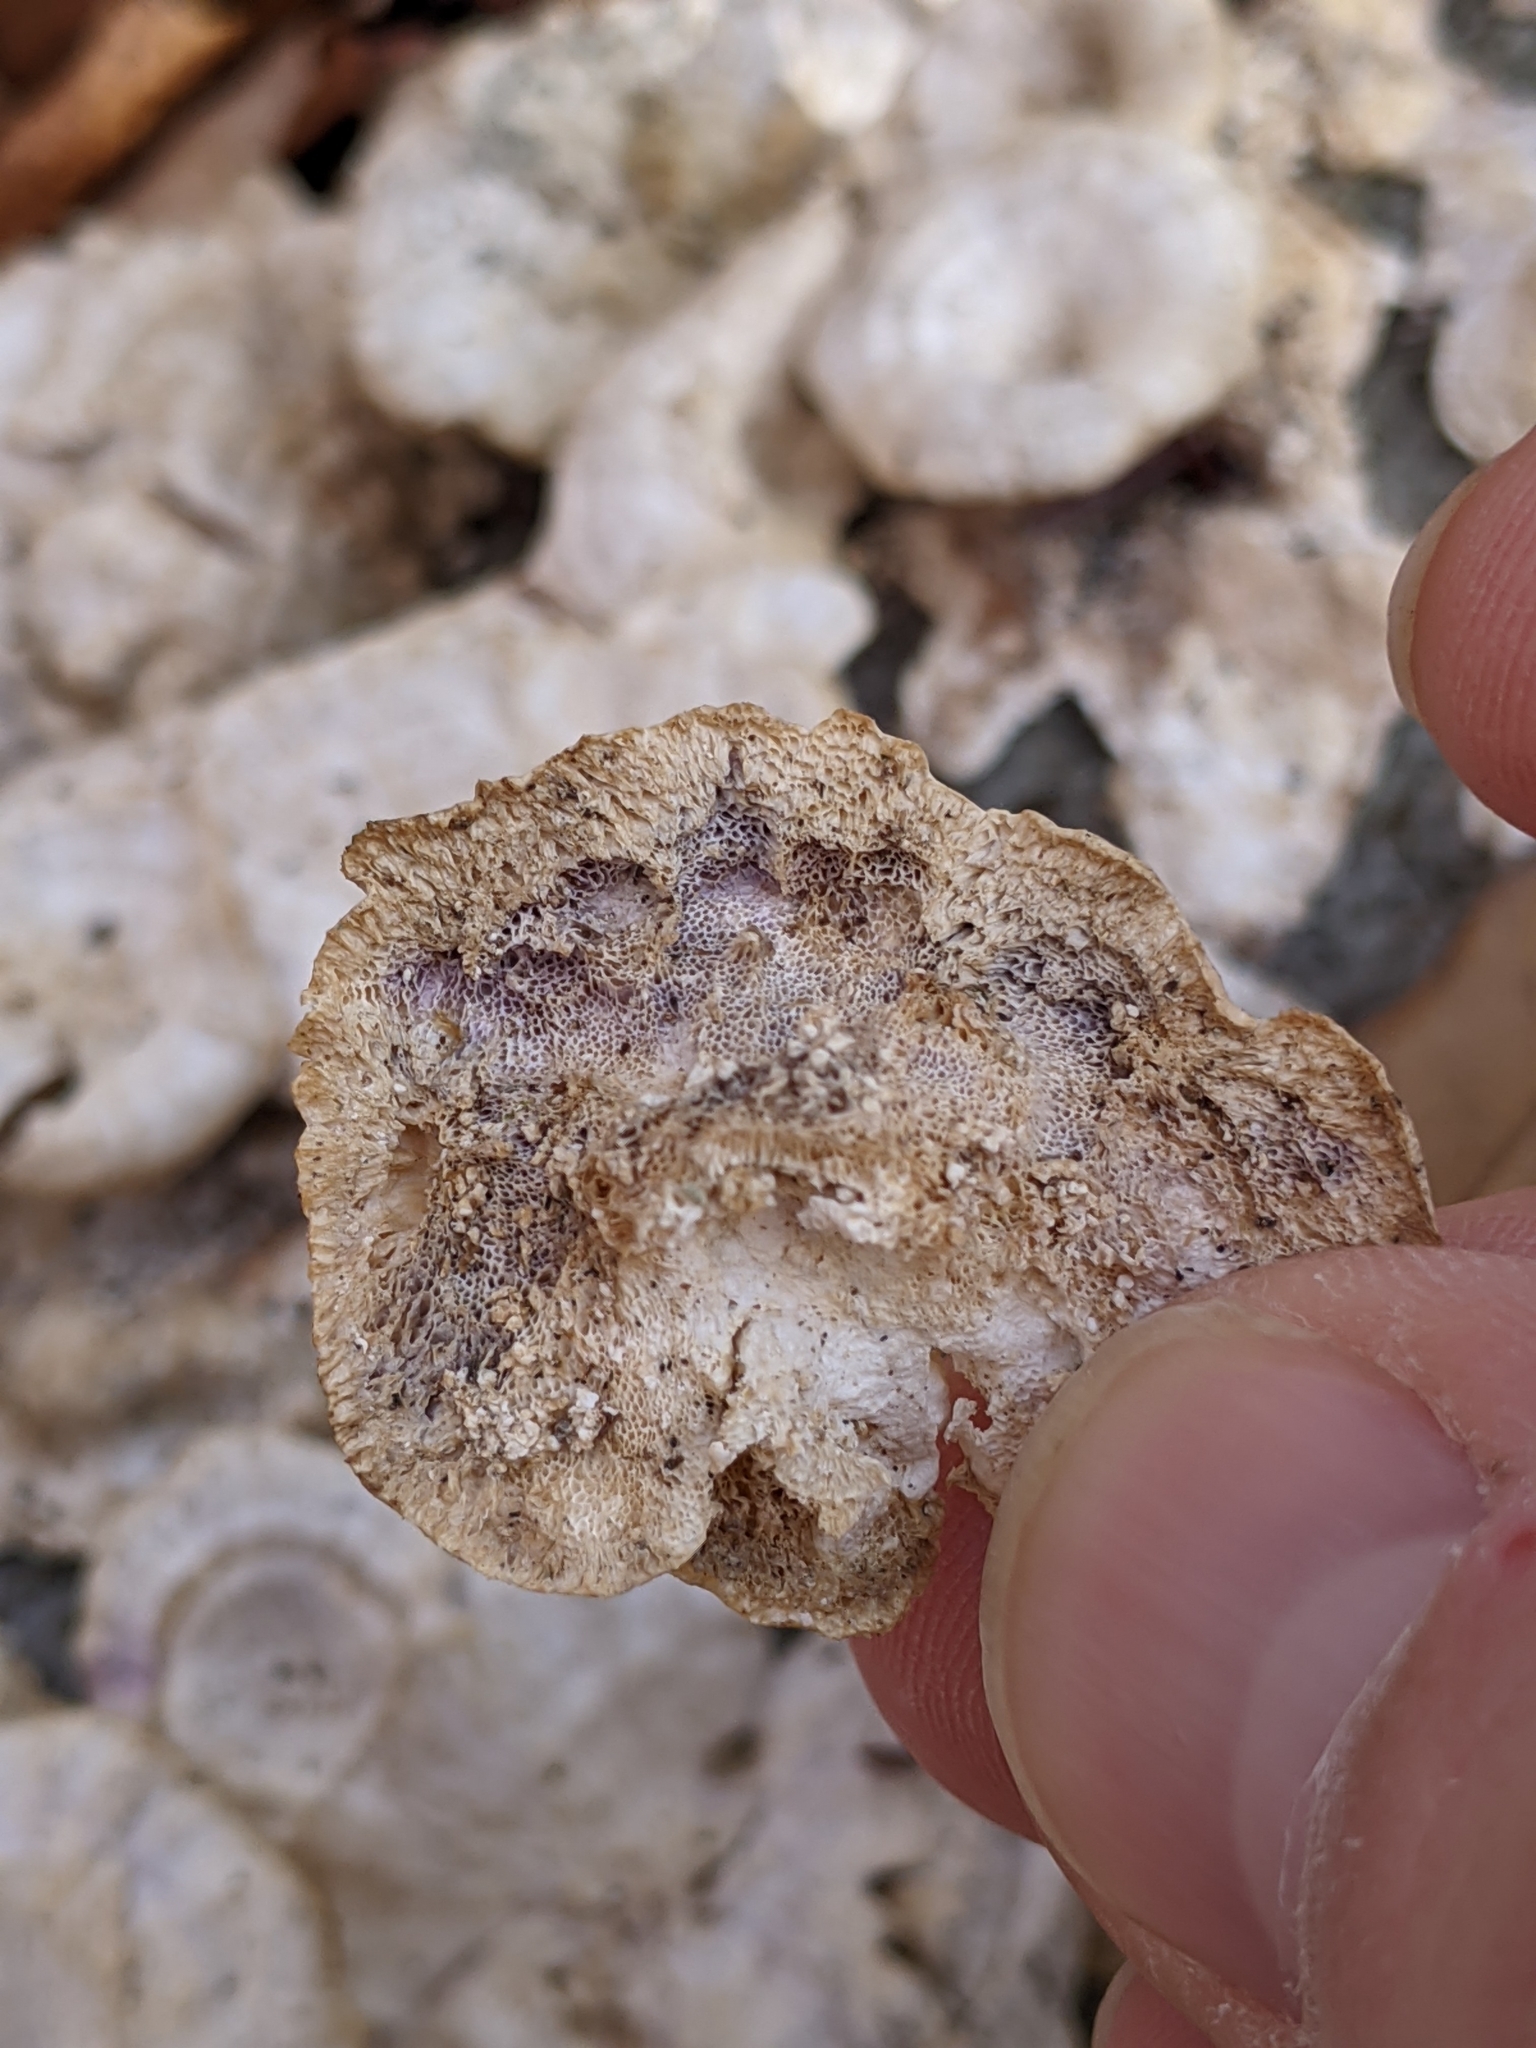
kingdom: Fungi
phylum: Basidiomycota
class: Agaricomycetes
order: Polyporales
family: Polyporaceae
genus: Poronidulus
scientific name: Poronidulus conchifer
